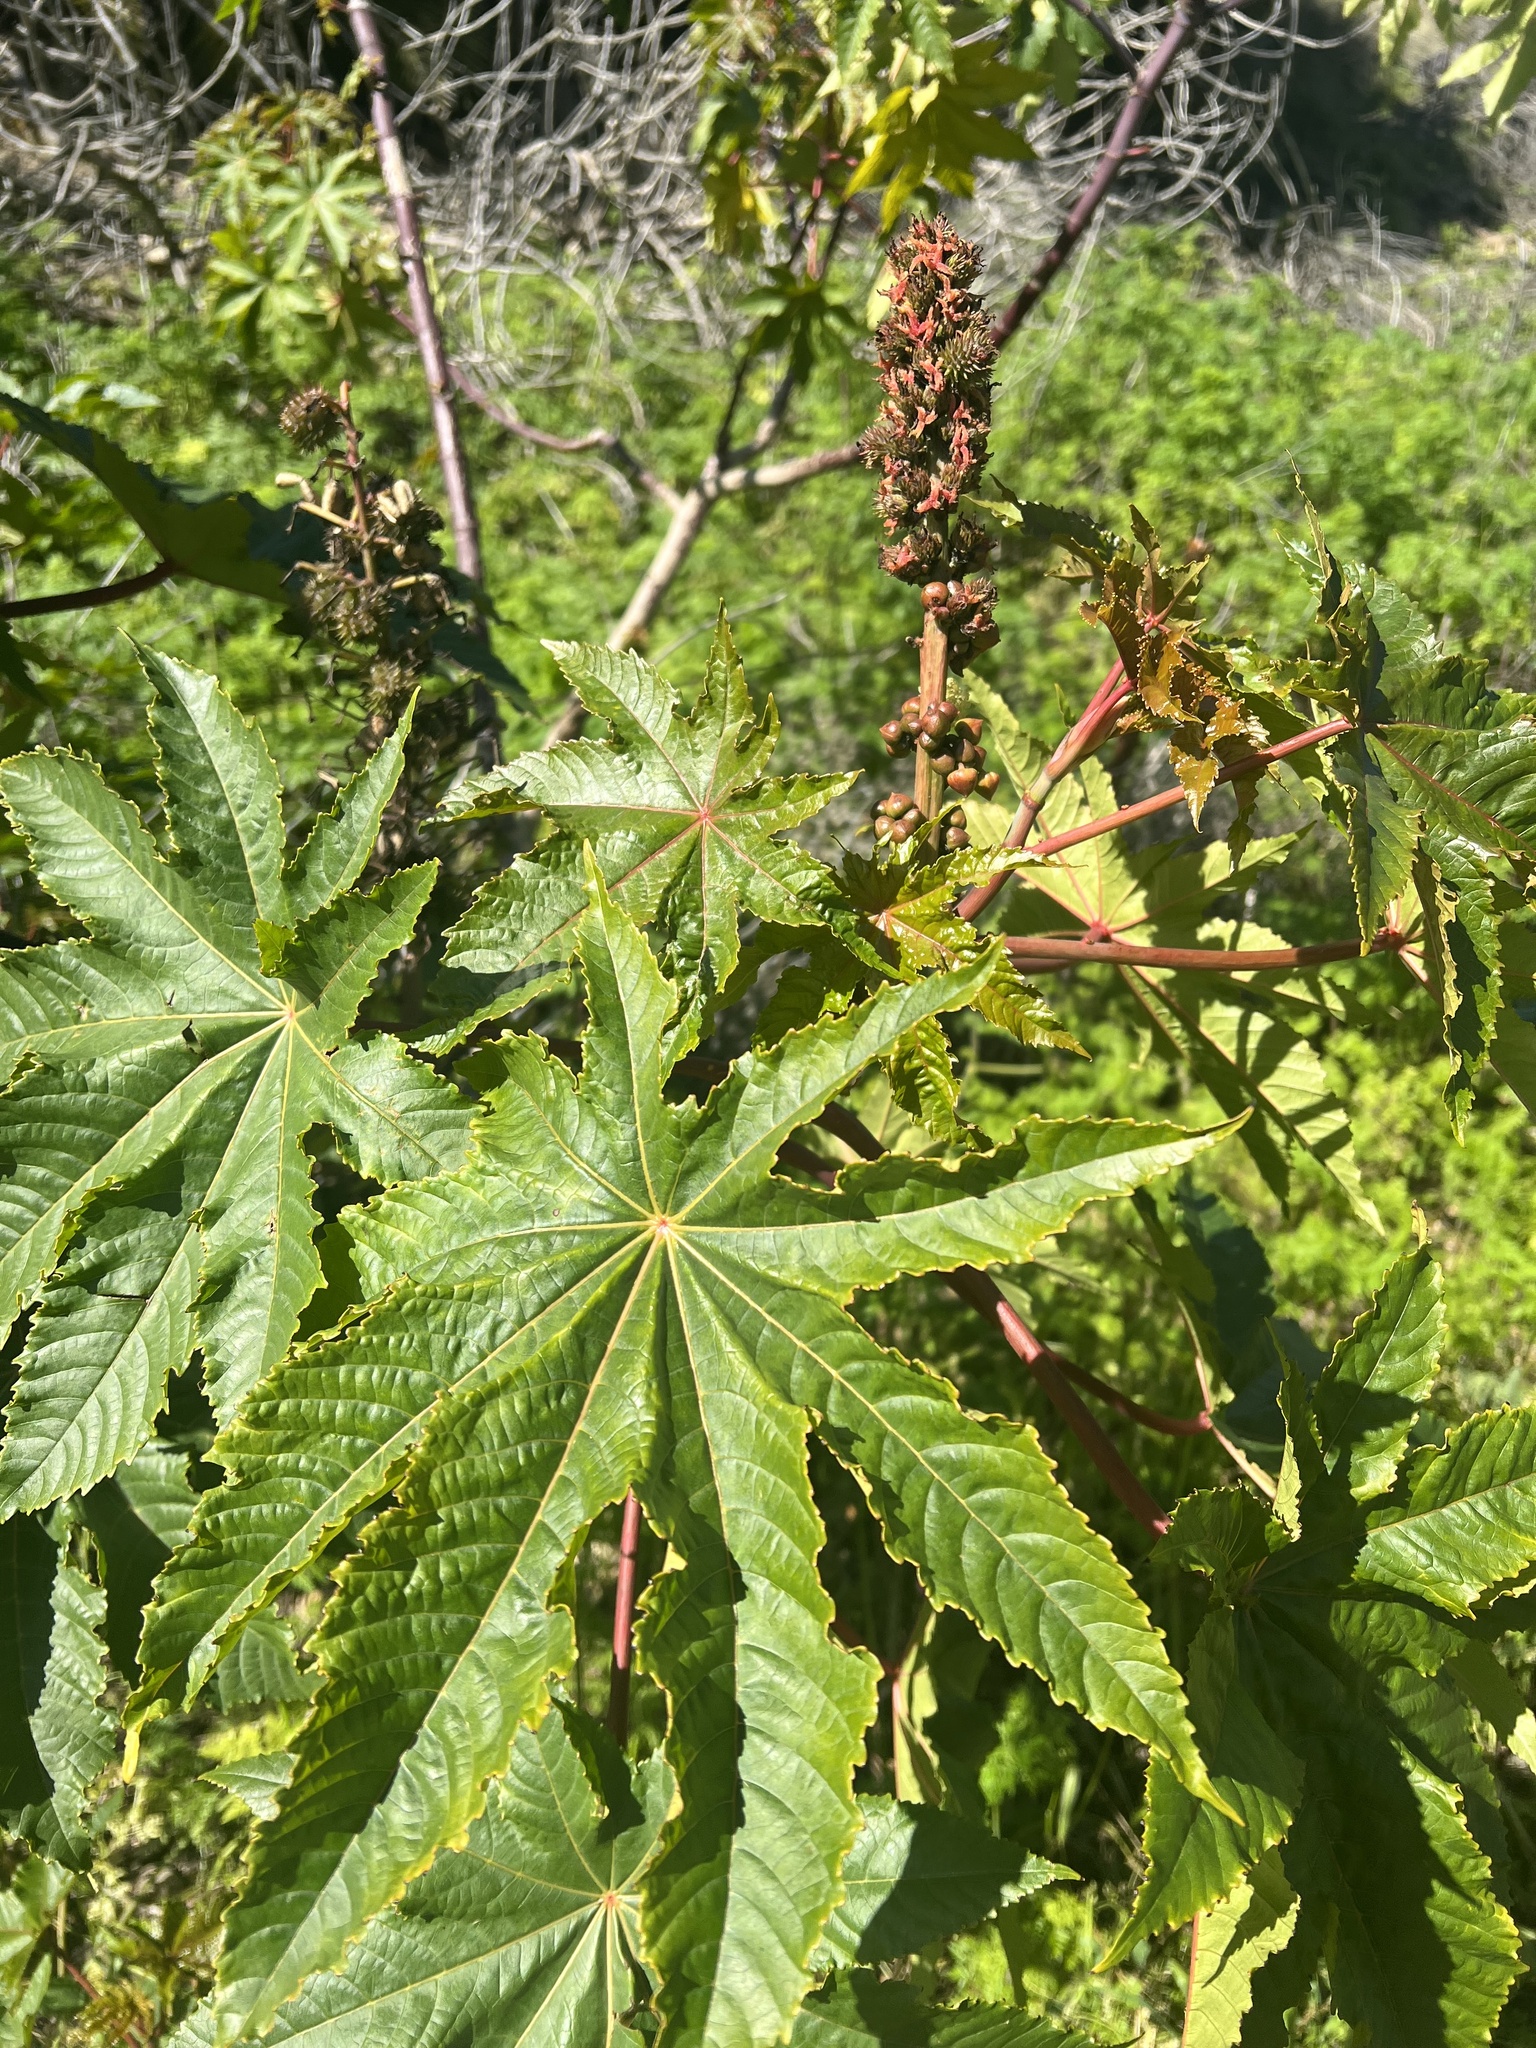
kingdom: Plantae
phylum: Tracheophyta
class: Magnoliopsida
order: Malpighiales
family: Euphorbiaceae
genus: Ricinus
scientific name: Ricinus communis
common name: Castor-oil-plant
